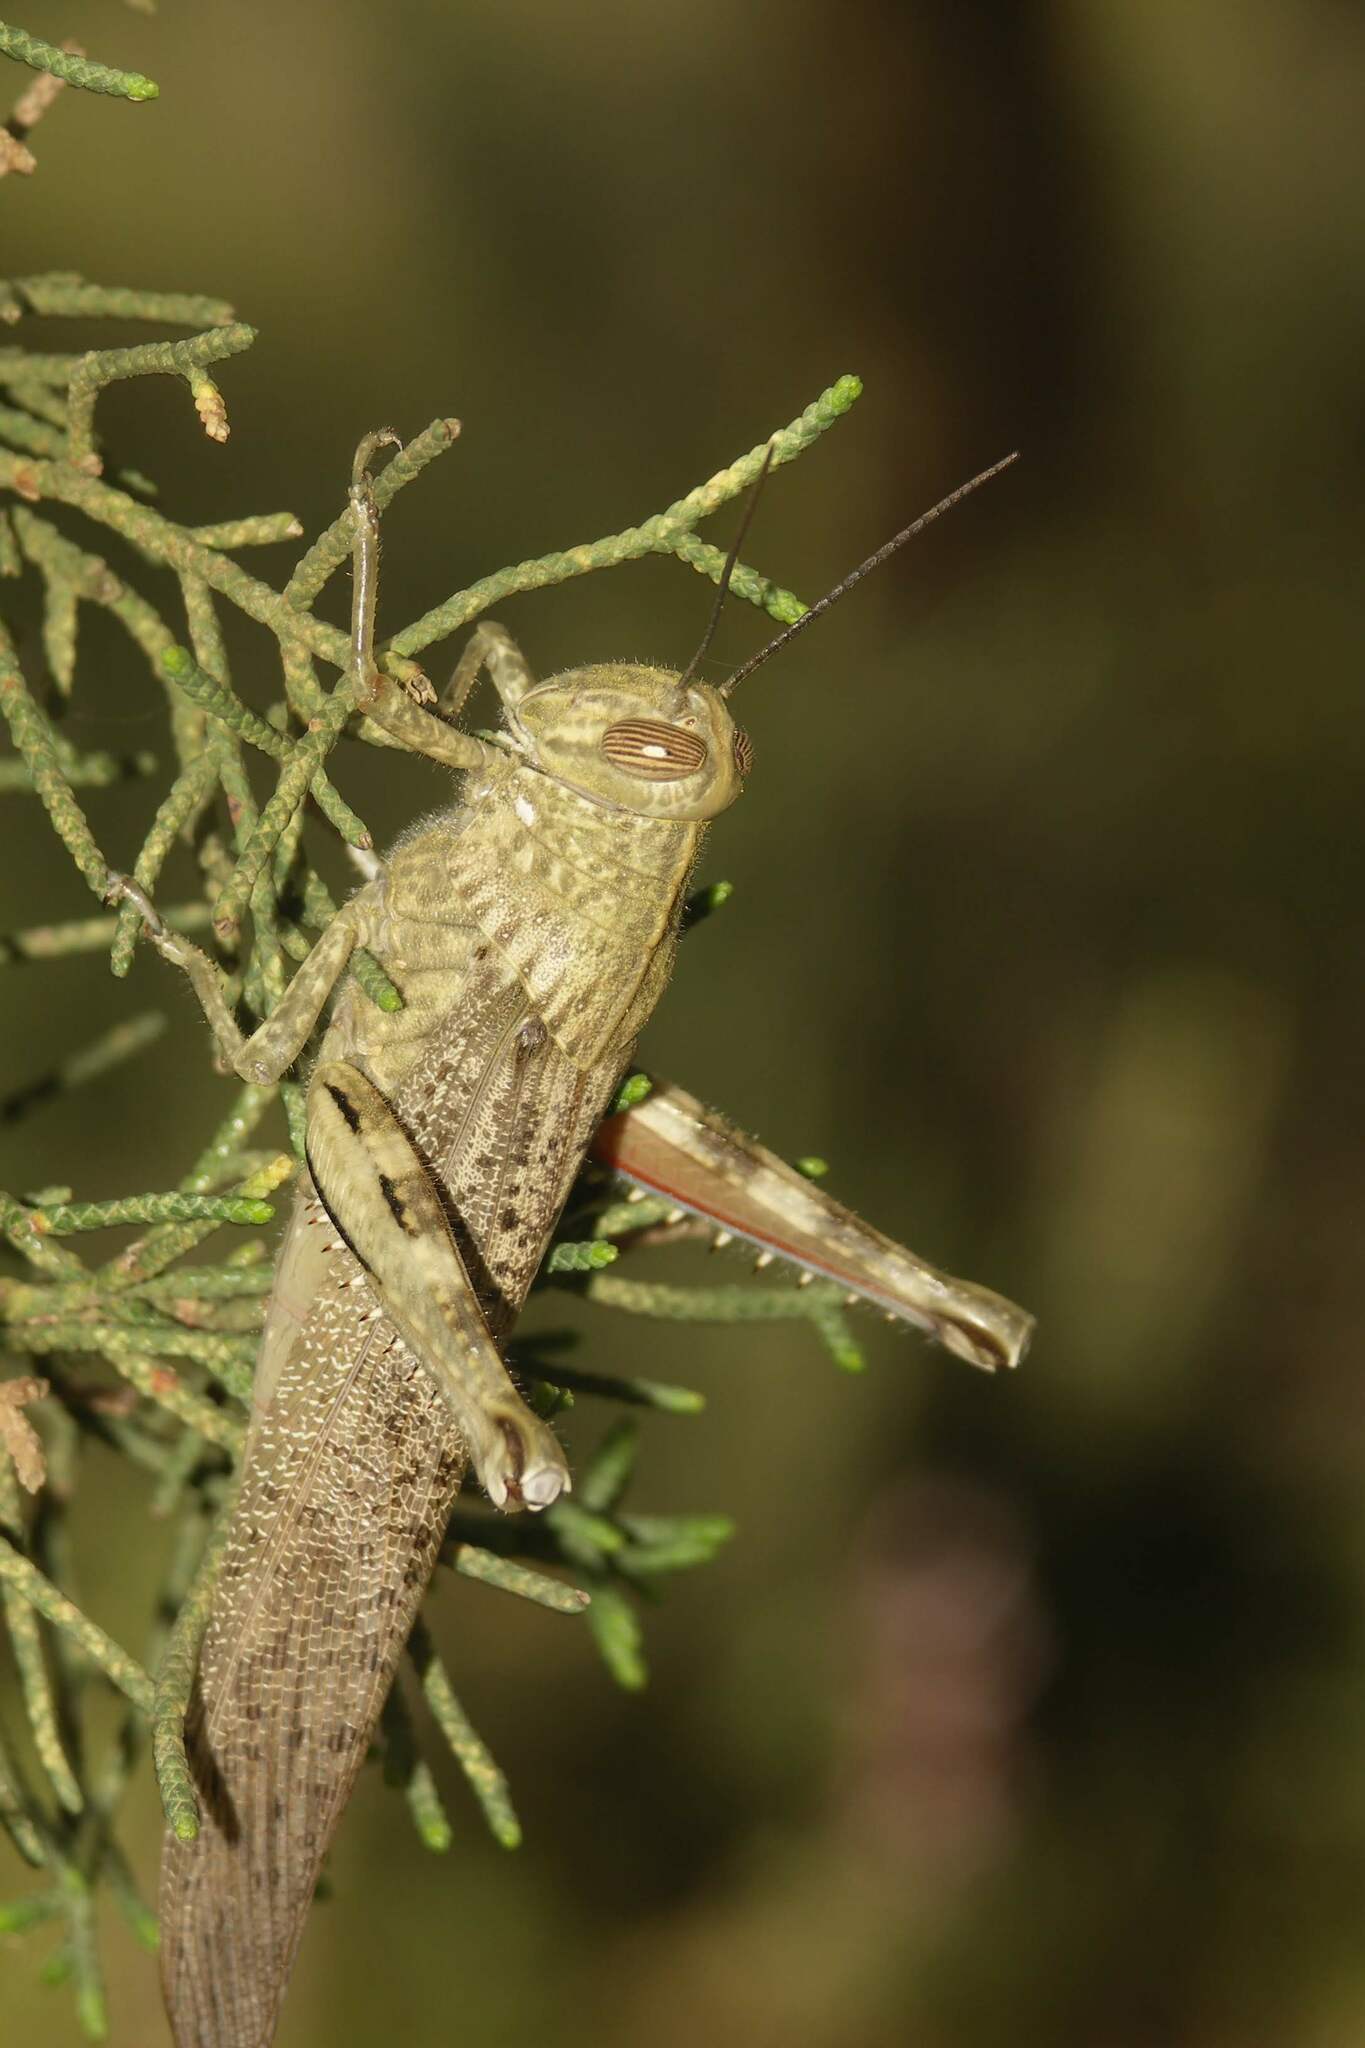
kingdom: Animalia
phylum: Arthropoda
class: Insecta
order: Orthoptera
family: Acrididae
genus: Anacridium
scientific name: Anacridium aegyptium
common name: Egyptian grasshopper
